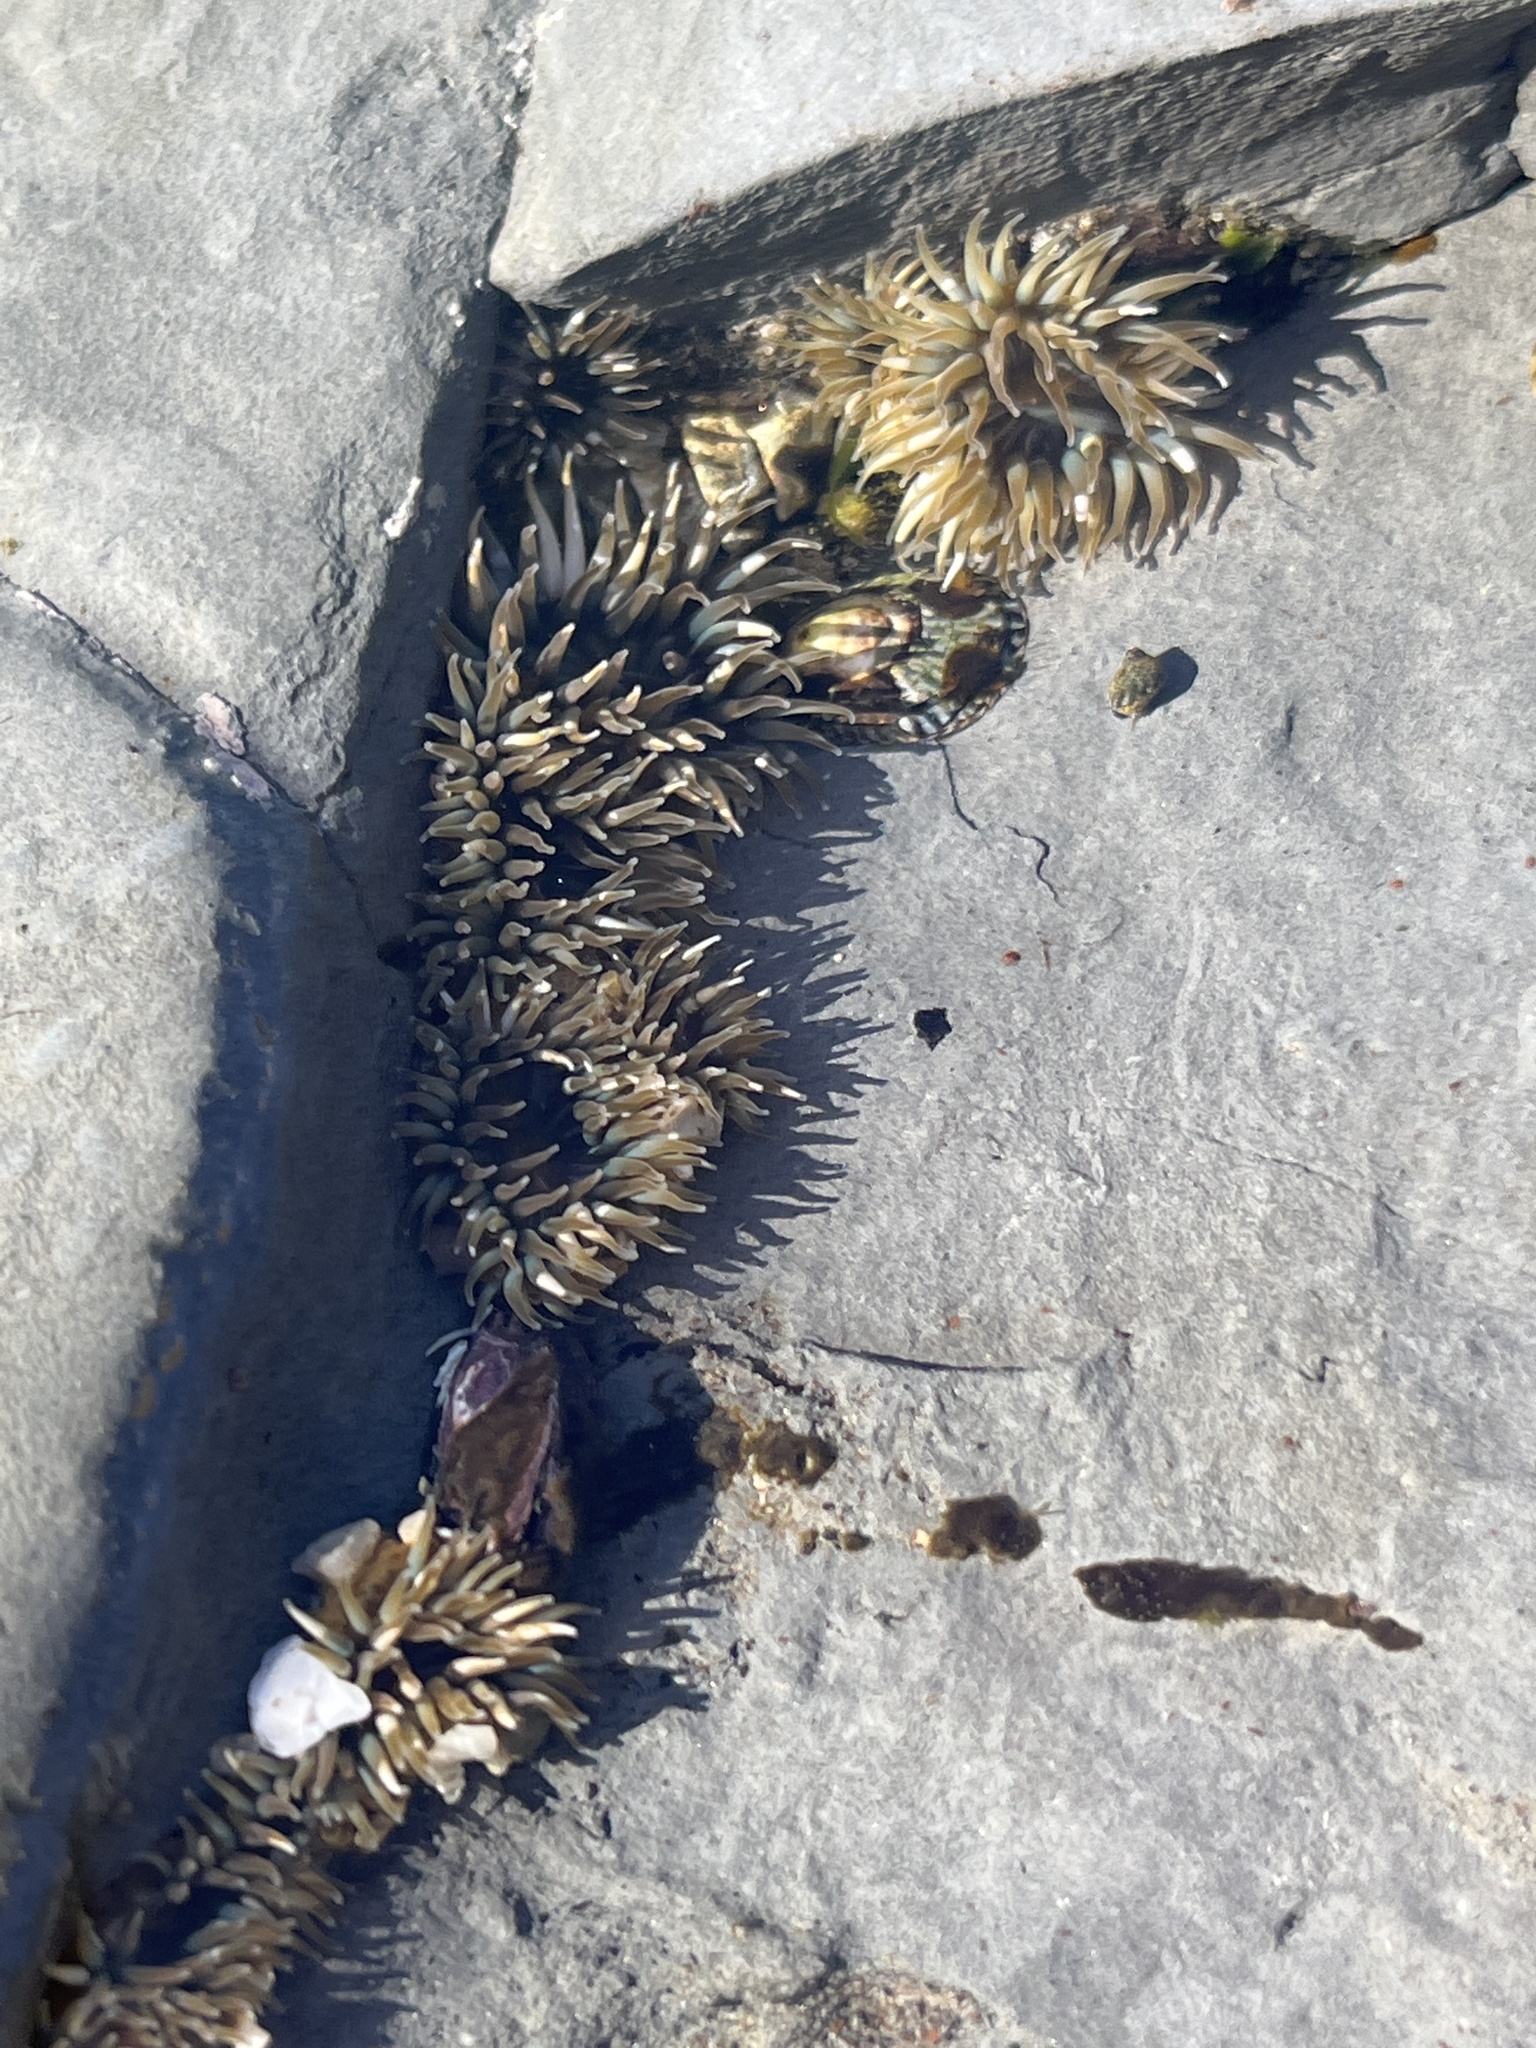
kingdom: Animalia
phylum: Cnidaria
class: Anthozoa
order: Actiniaria
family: Actiniidae
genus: Anthopleura
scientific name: Anthopleura elegantissima
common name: Clonal anemone
